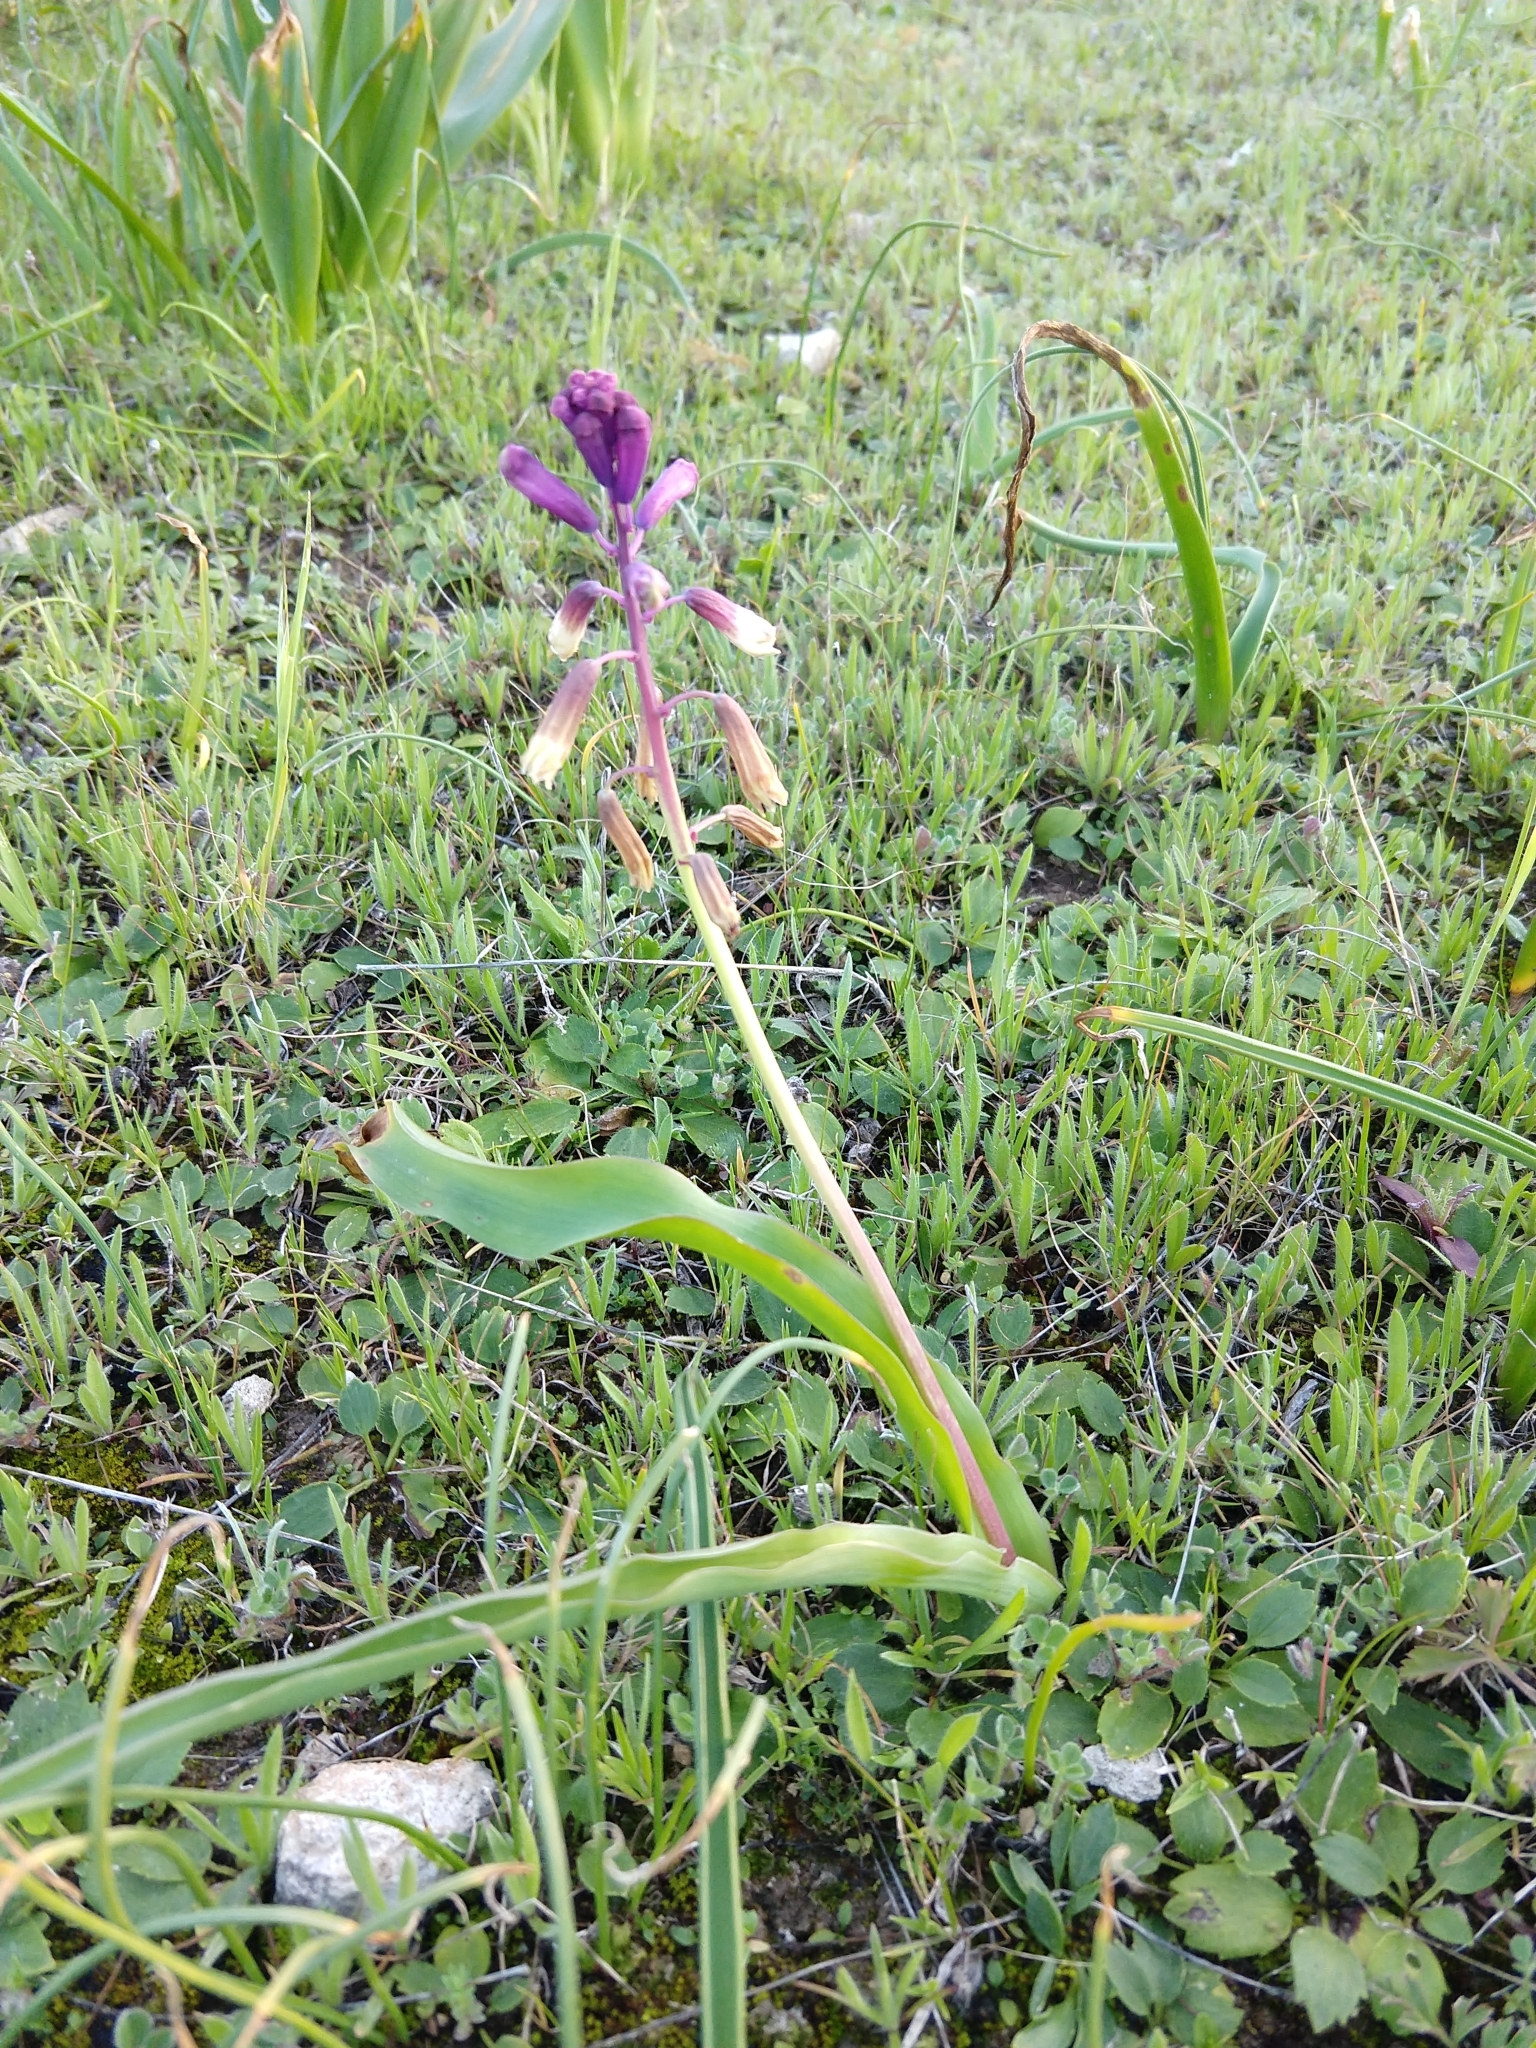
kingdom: Plantae
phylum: Tracheophyta
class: Liliopsida
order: Asparagales
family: Asparagaceae
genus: Bellevalia
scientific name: Bellevalia trifoliata
